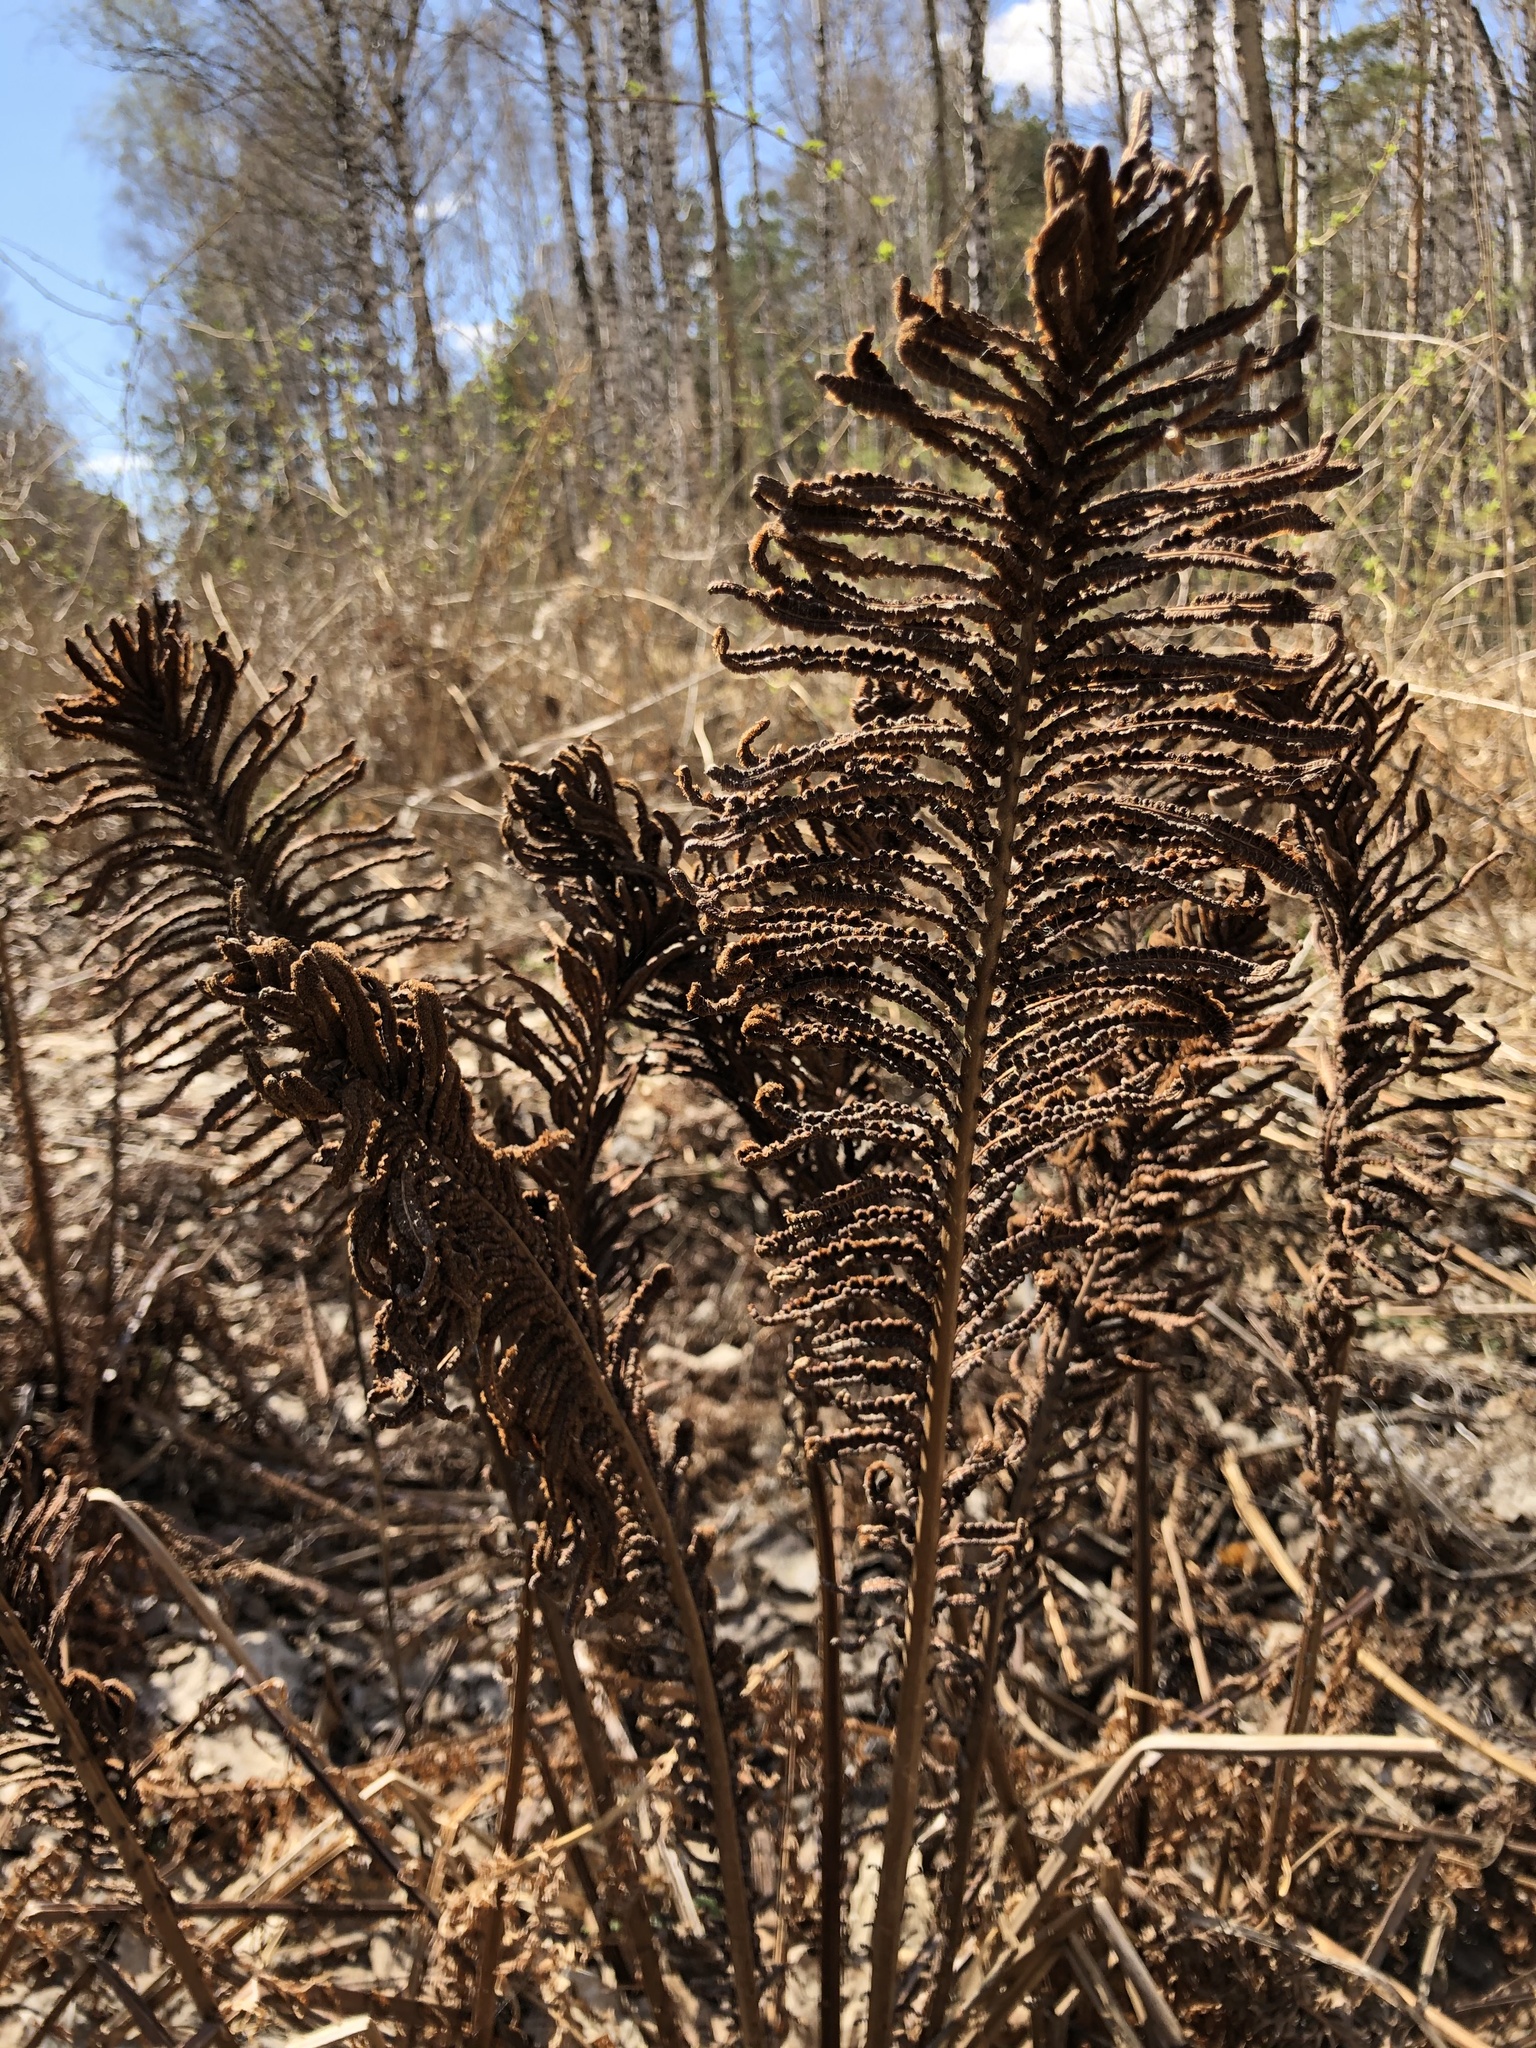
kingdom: Plantae
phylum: Tracheophyta
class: Polypodiopsida
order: Polypodiales
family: Onocleaceae
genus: Matteuccia
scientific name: Matteuccia struthiopteris
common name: Ostrich fern
